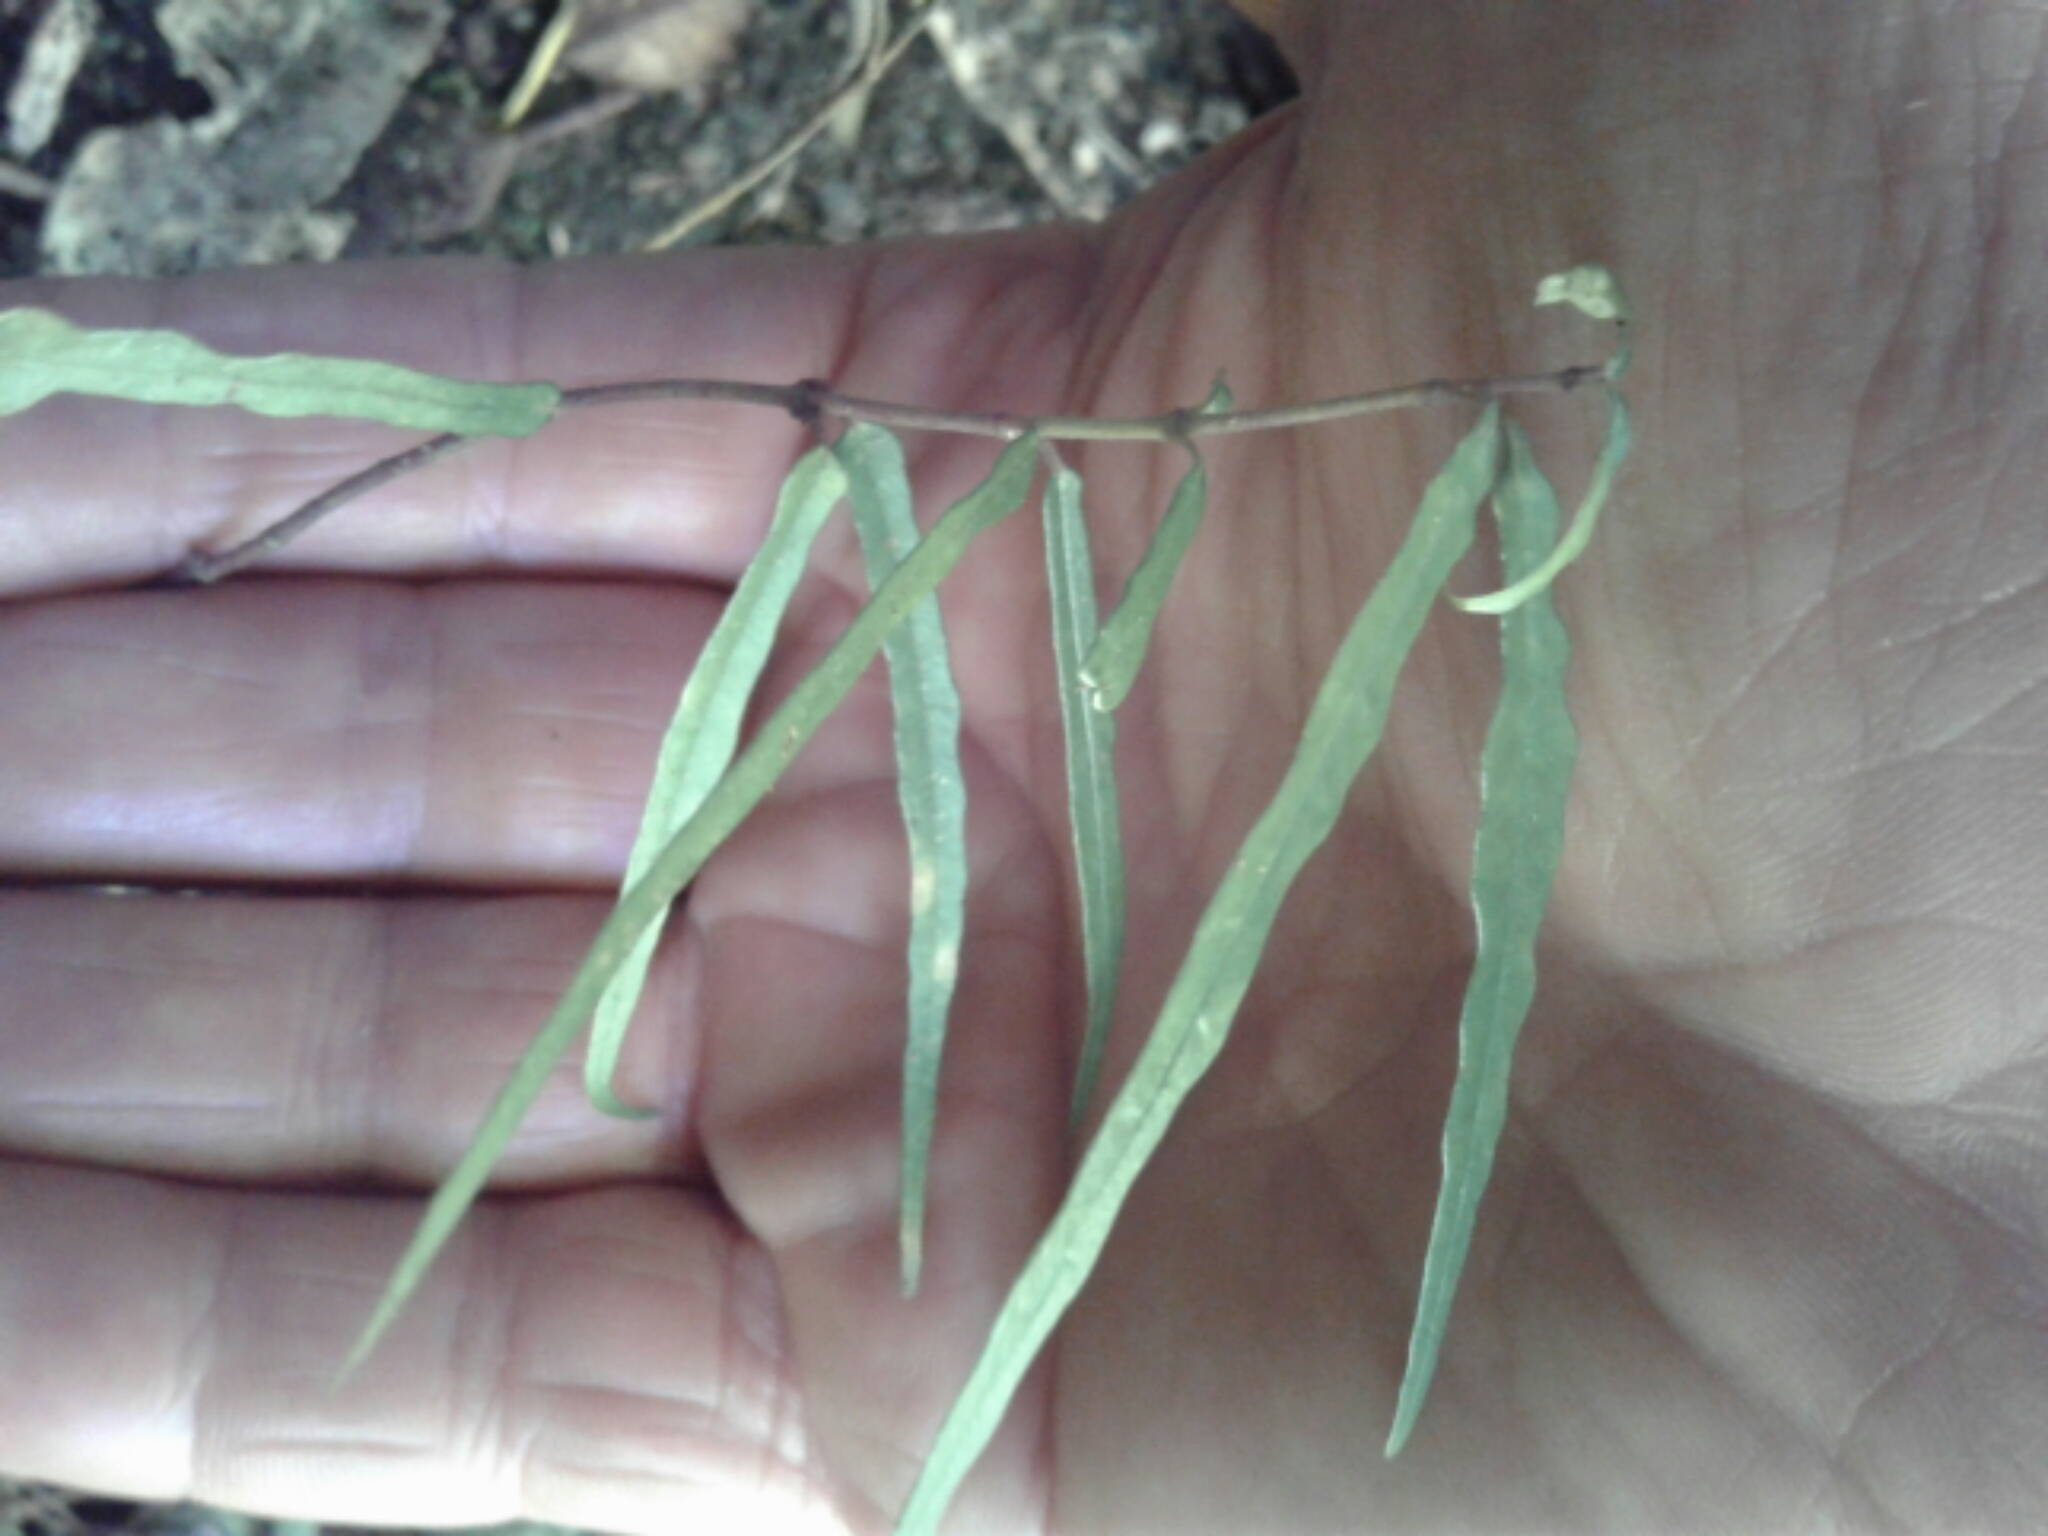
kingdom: Plantae
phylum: Tracheophyta
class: Magnoliopsida
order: Gentianales
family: Apocynaceae
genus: Parsonsia
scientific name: Parsonsia heterophylla
